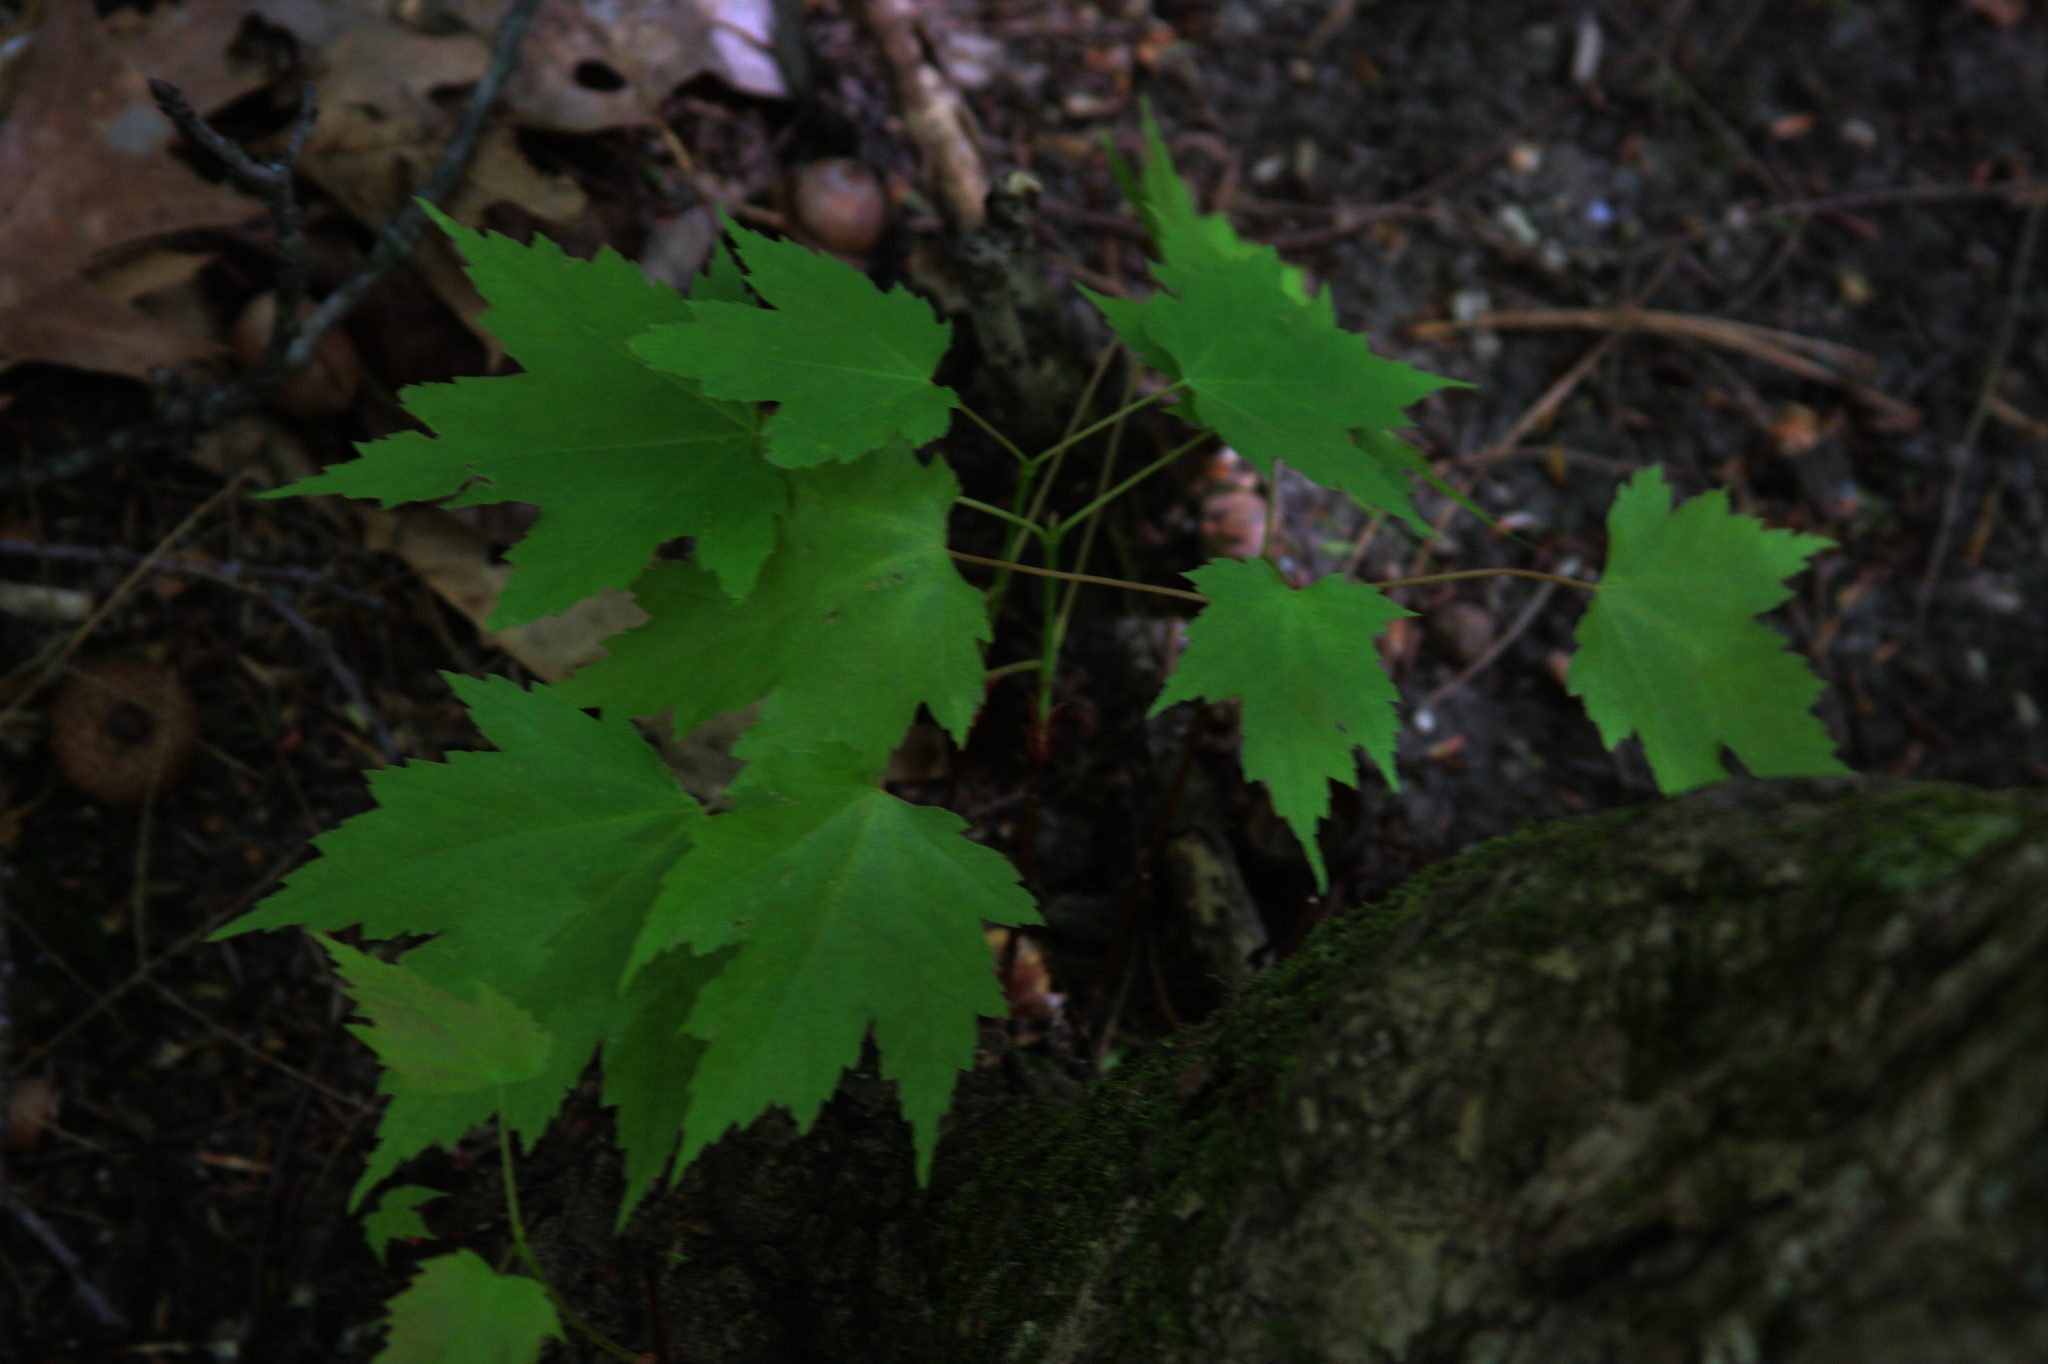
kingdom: Plantae
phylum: Tracheophyta
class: Magnoliopsida
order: Sapindales
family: Sapindaceae
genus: Acer
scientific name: Acer rubrum
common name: Red maple
